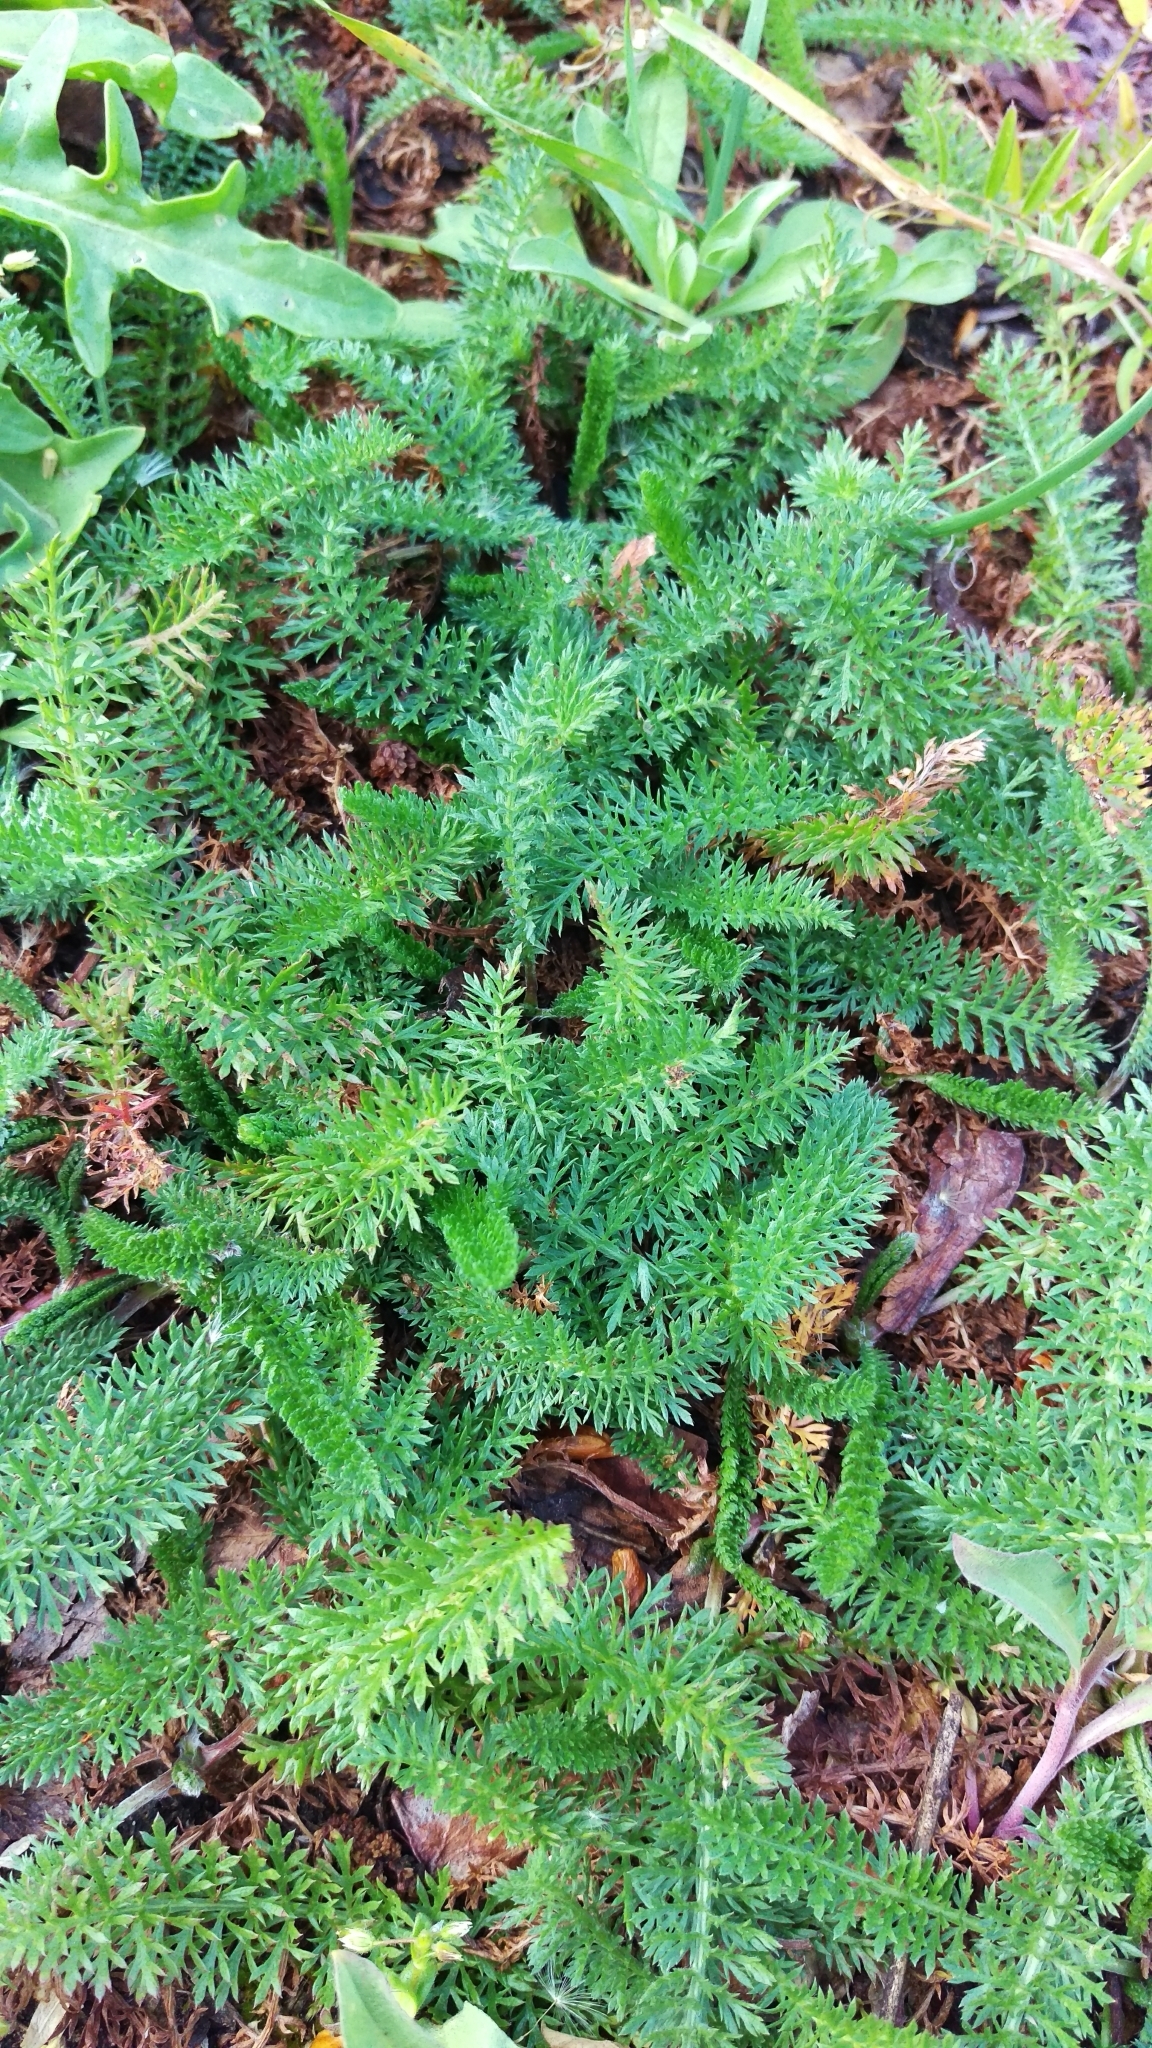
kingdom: Plantae
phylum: Tracheophyta
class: Magnoliopsida
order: Asterales
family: Asteraceae
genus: Achillea
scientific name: Achillea millefolium
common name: Yarrow
